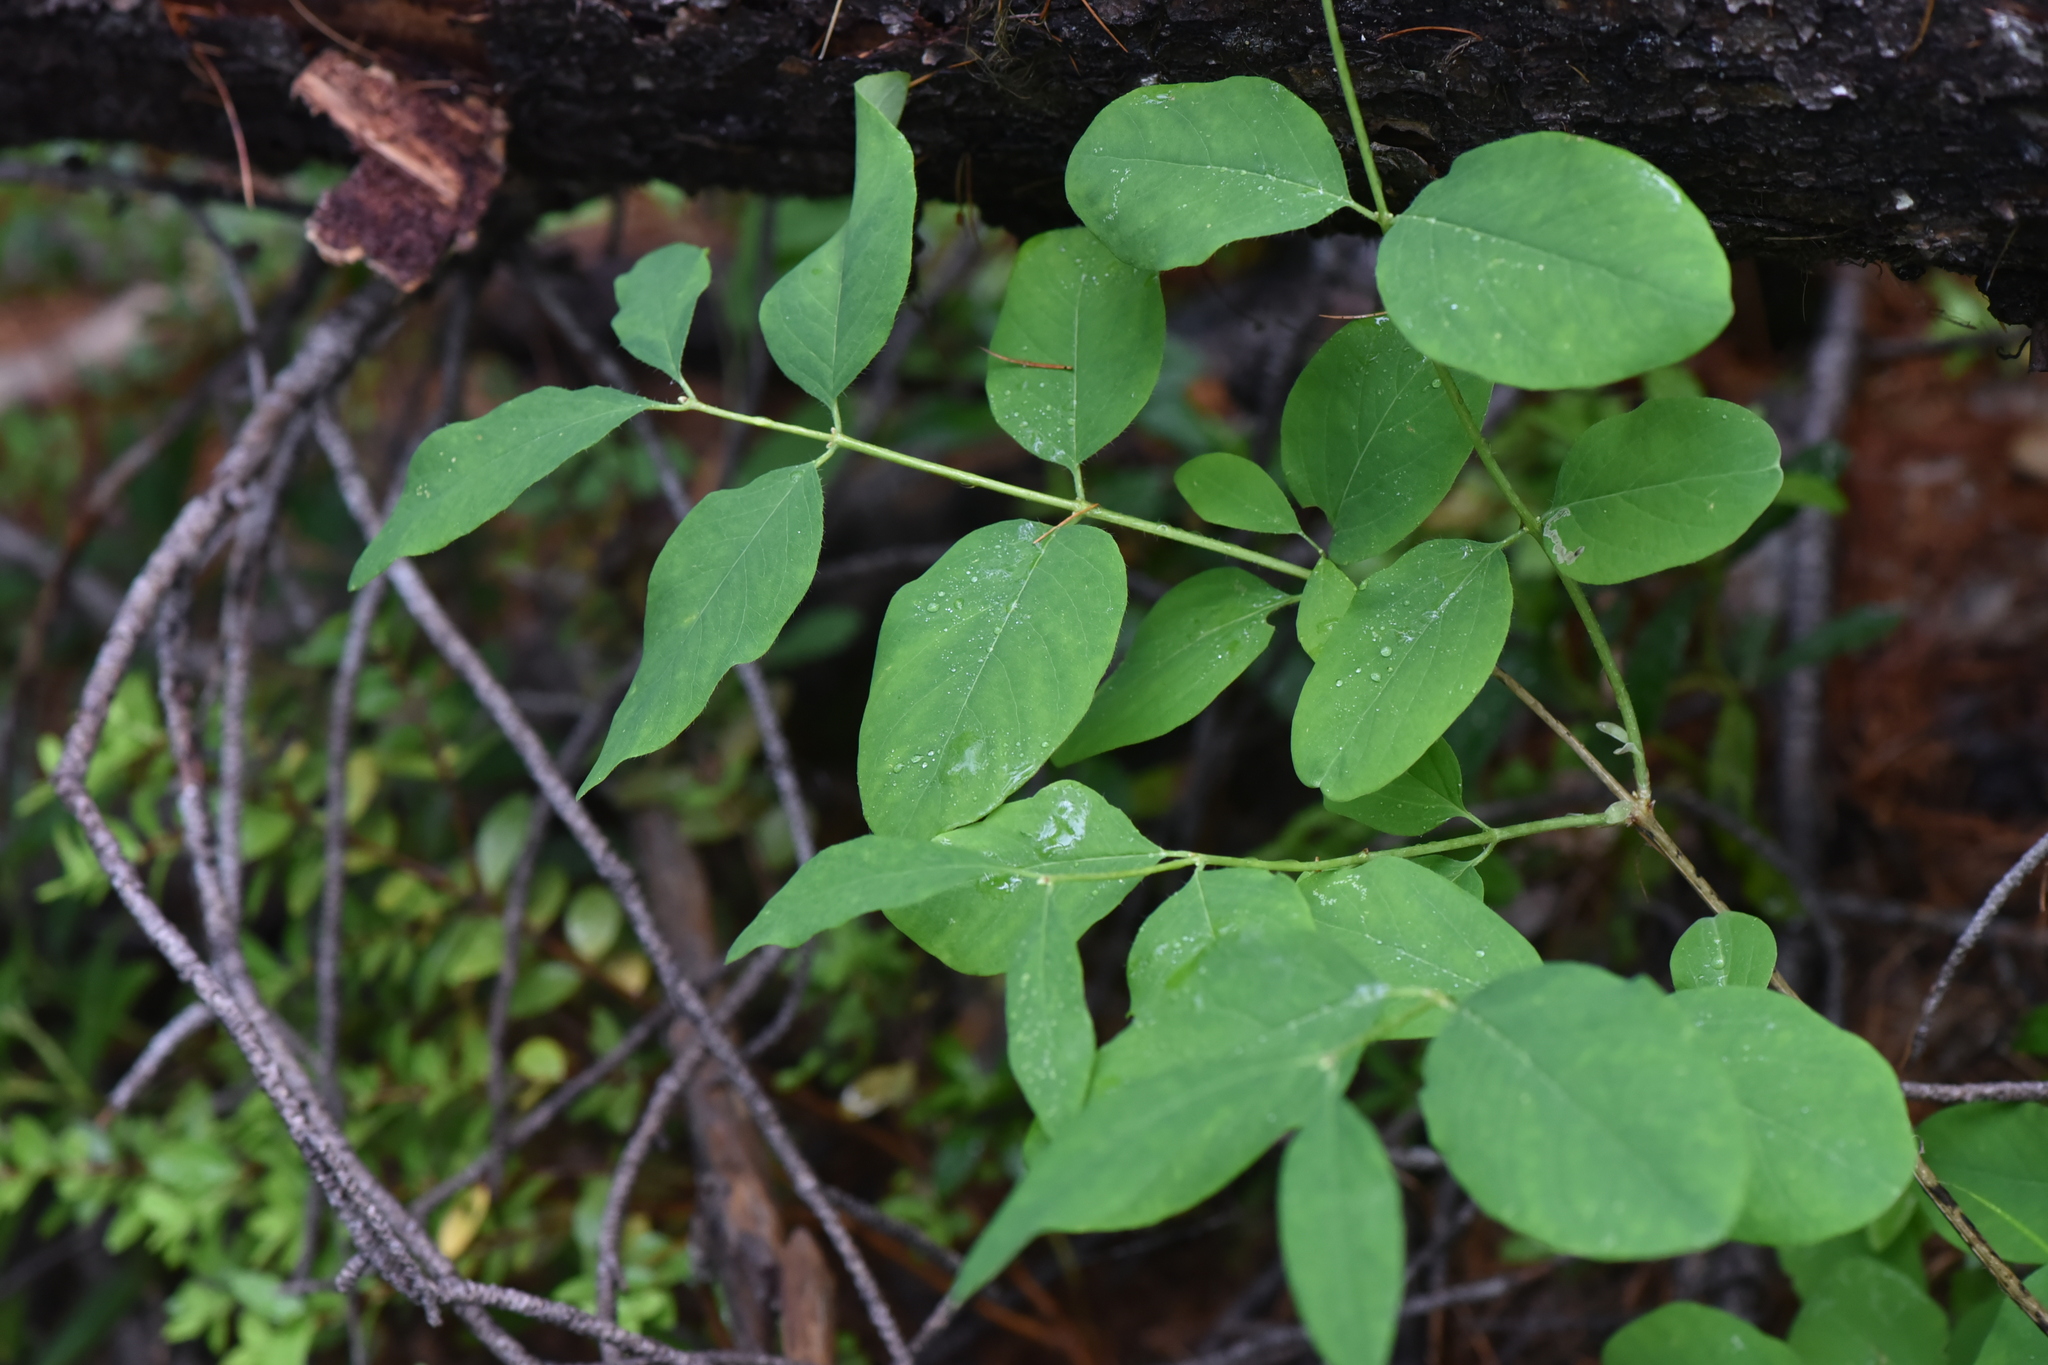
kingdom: Plantae
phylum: Tracheophyta
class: Magnoliopsida
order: Dipsacales
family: Caprifoliaceae
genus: Lonicera
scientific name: Lonicera utahensis
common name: Utah honeysuckle
